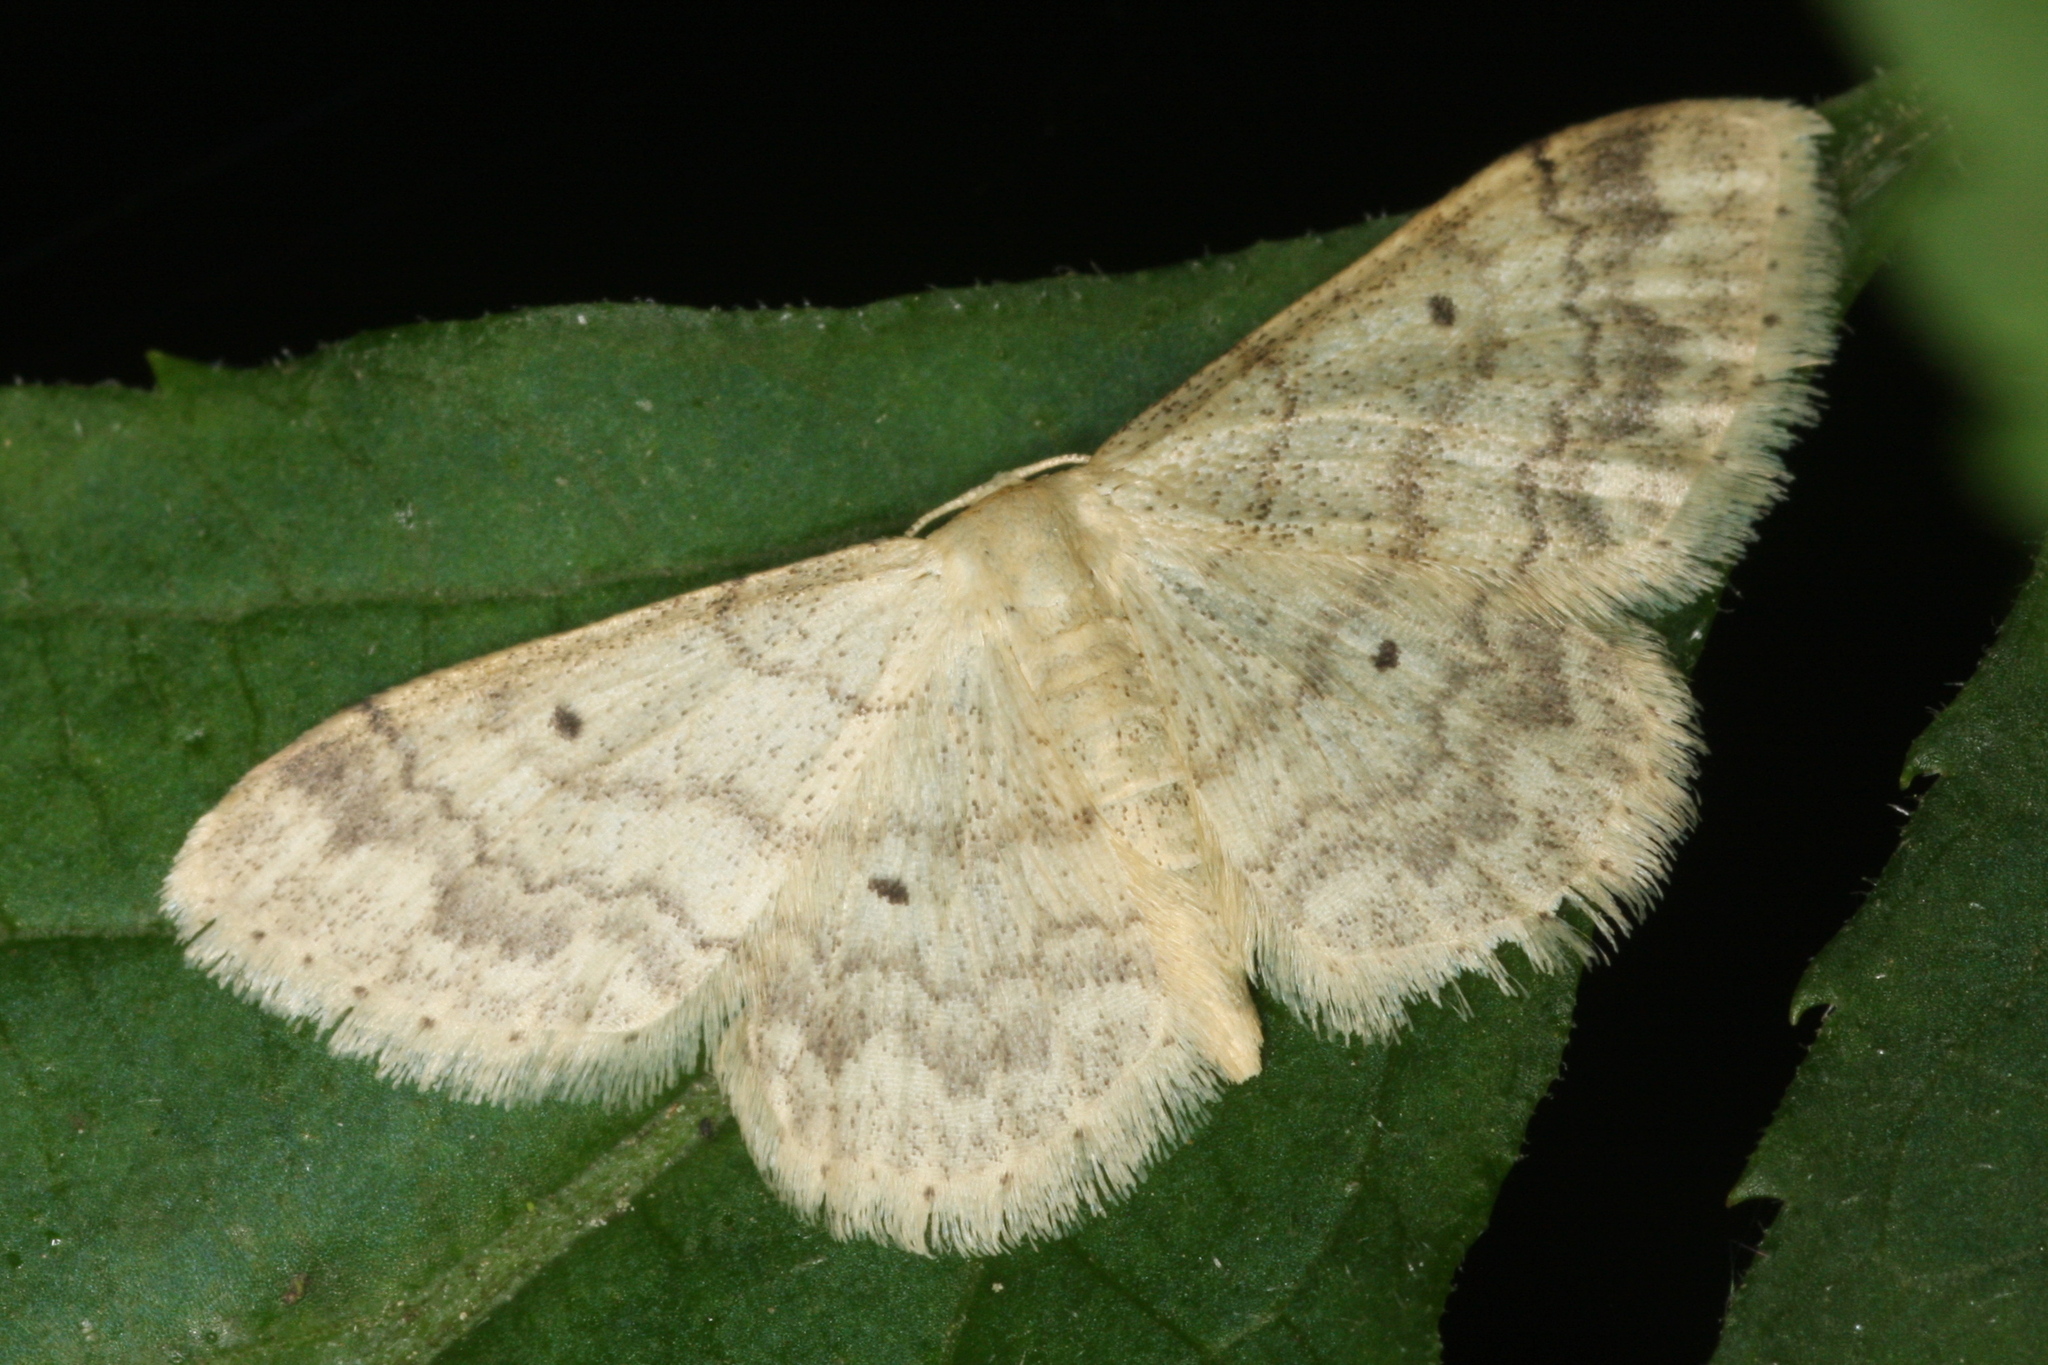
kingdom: Animalia
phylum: Arthropoda
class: Insecta
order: Lepidoptera
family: Geometridae
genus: Idaea
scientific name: Idaea biselata
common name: Small fan-footed wave
